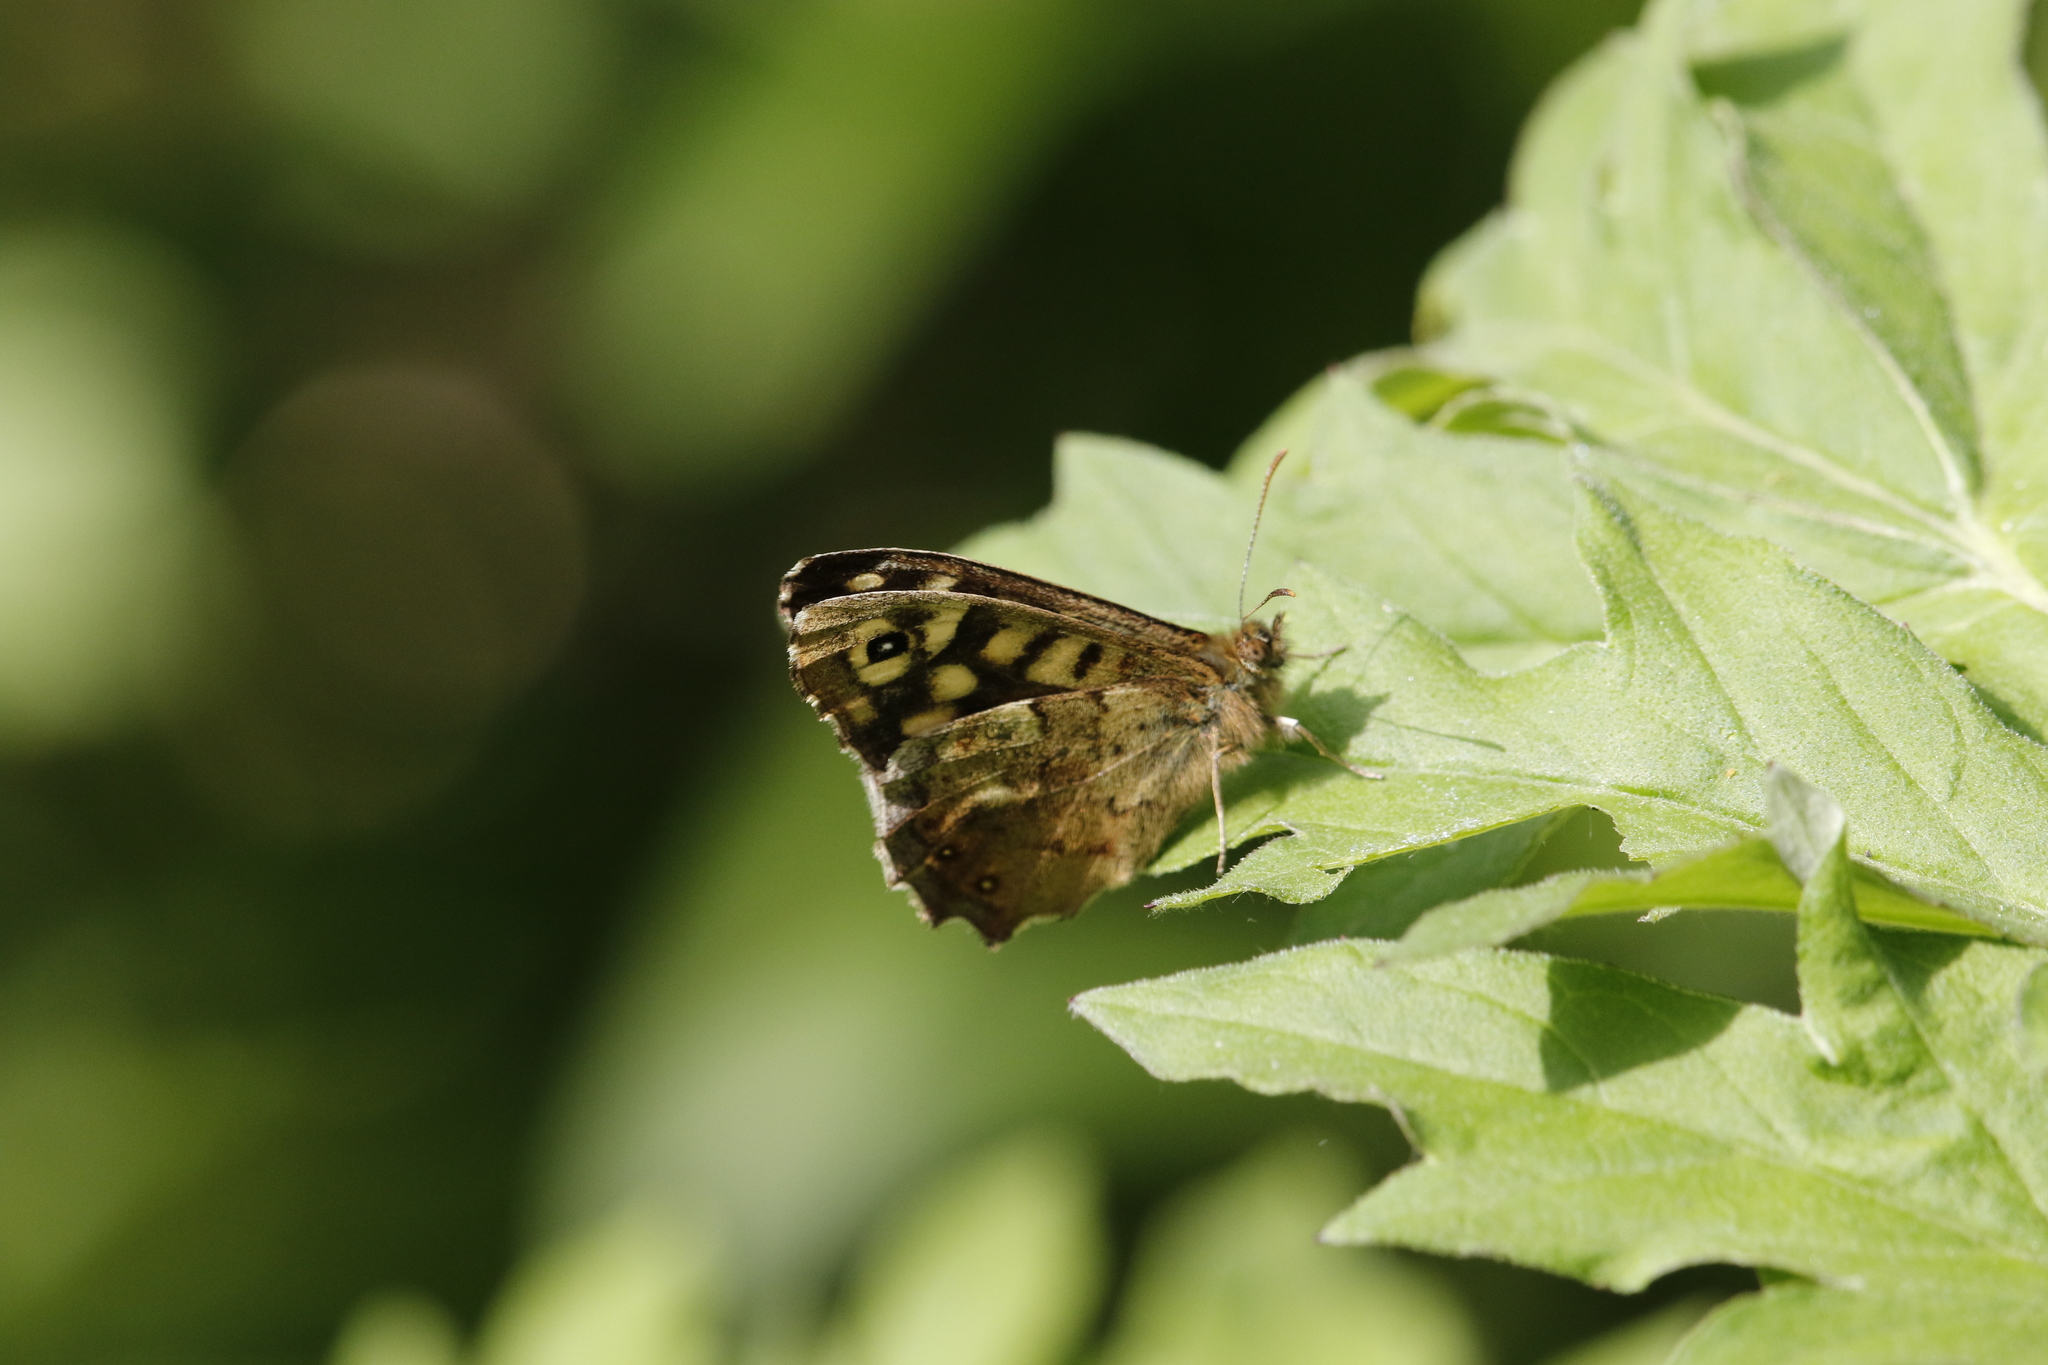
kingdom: Animalia
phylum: Arthropoda
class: Insecta
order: Lepidoptera
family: Nymphalidae
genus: Pararge
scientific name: Pararge aegeria
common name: Speckled wood
